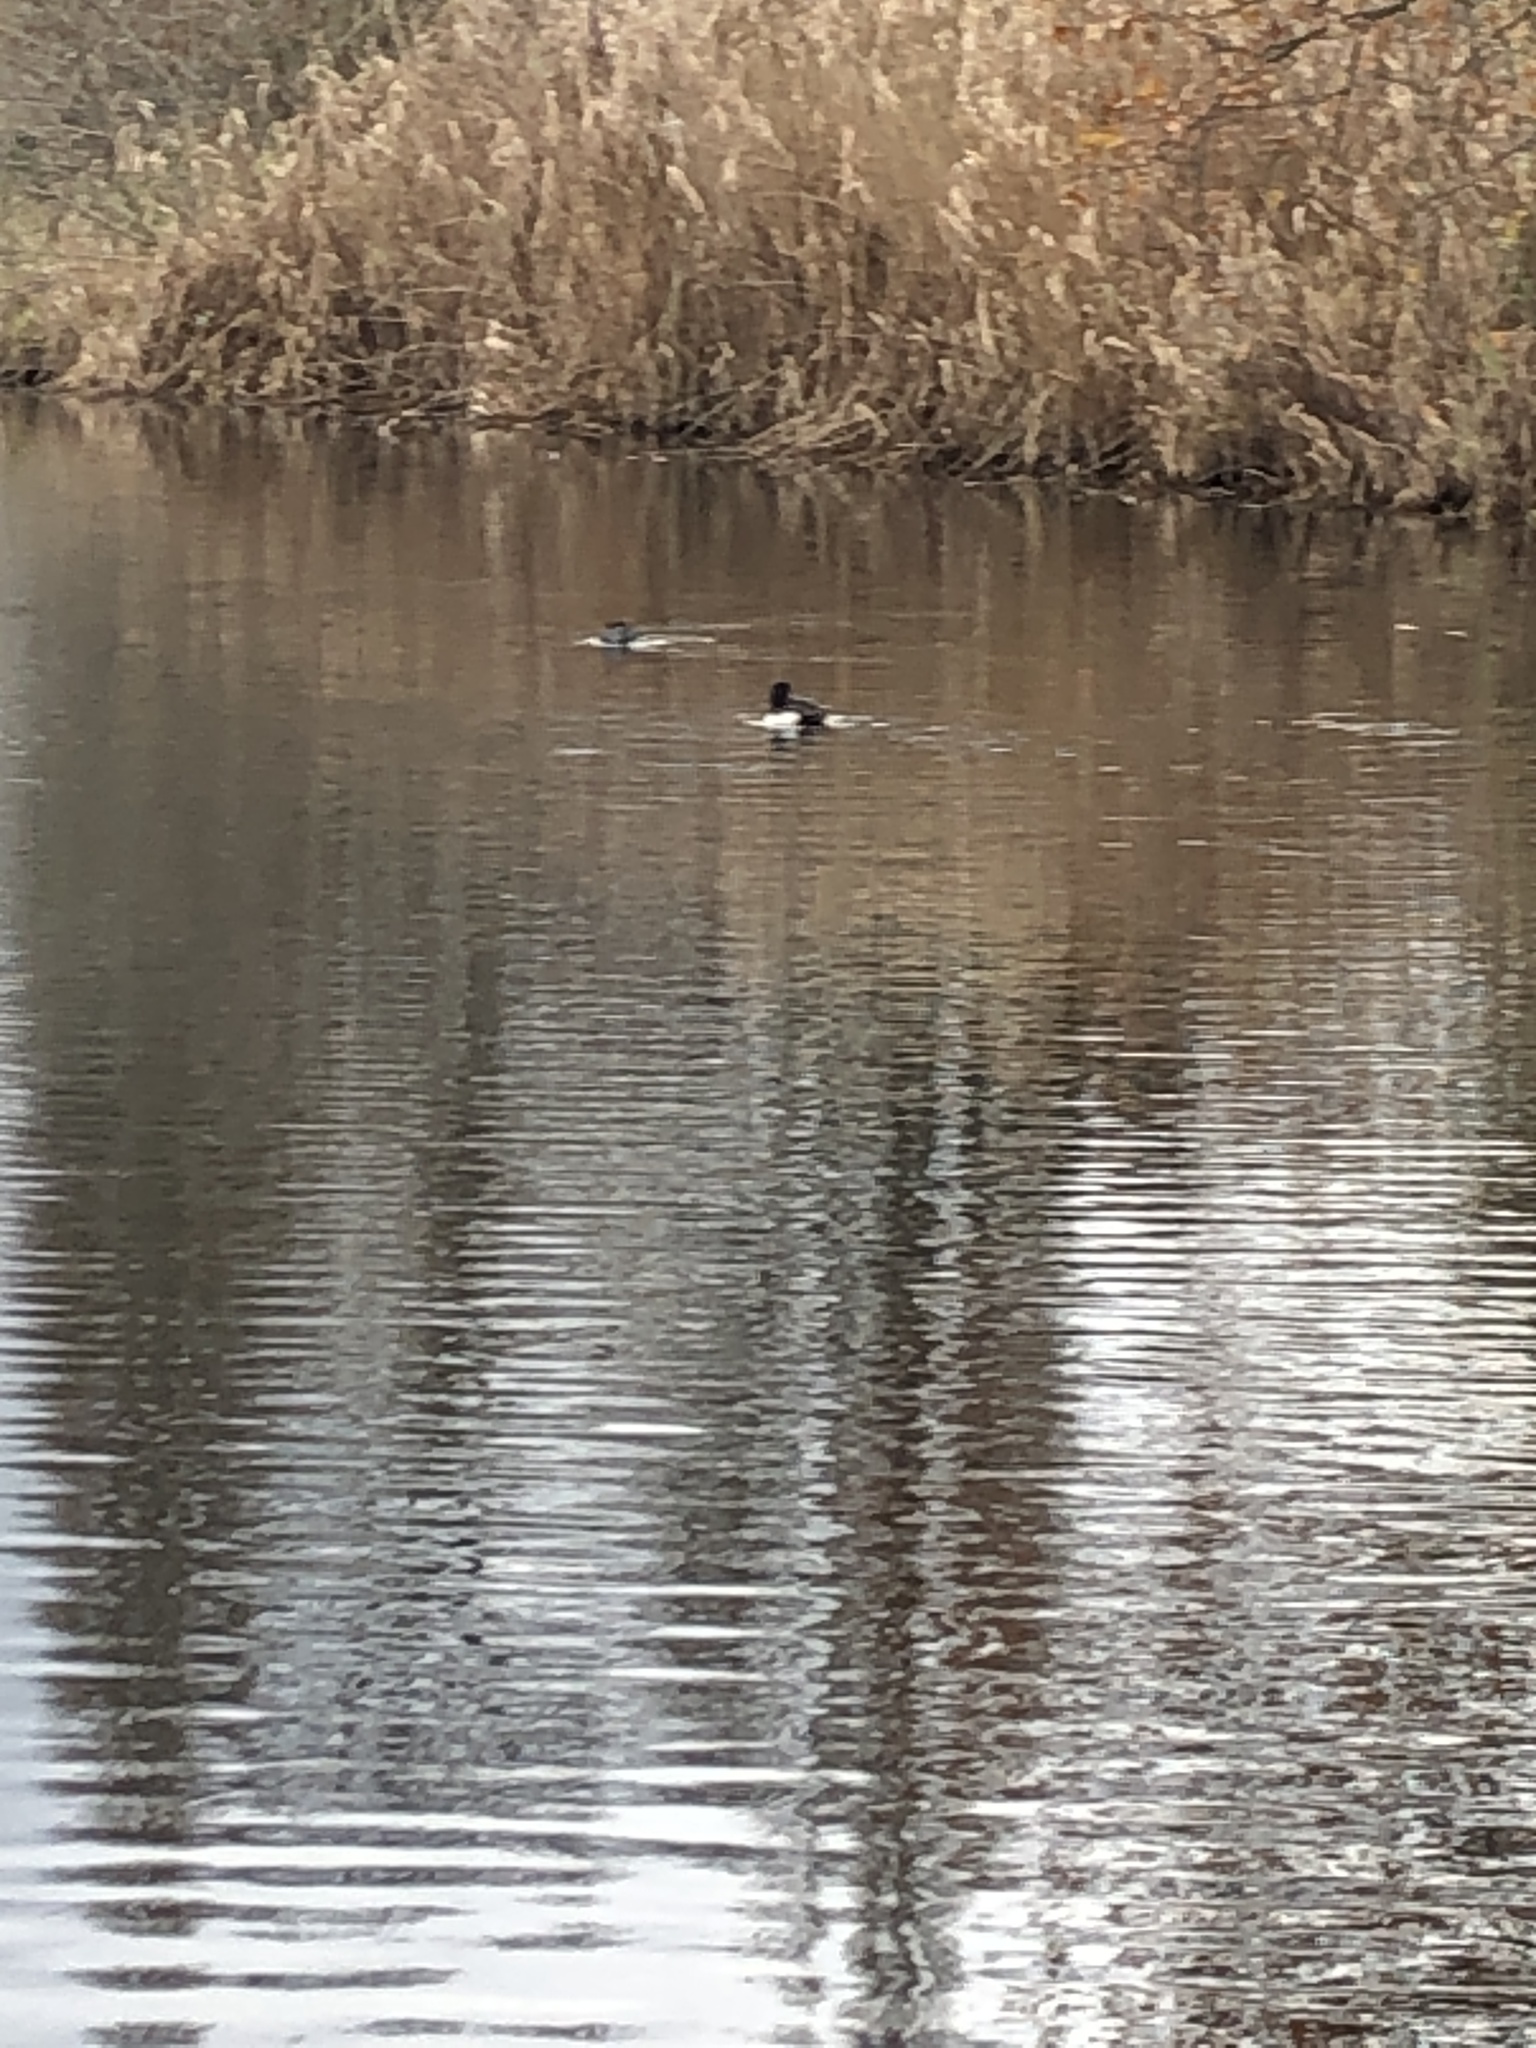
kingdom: Animalia
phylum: Chordata
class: Aves
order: Anseriformes
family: Anatidae
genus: Aythya
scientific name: Aythya fuligula
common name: Tufted duck
